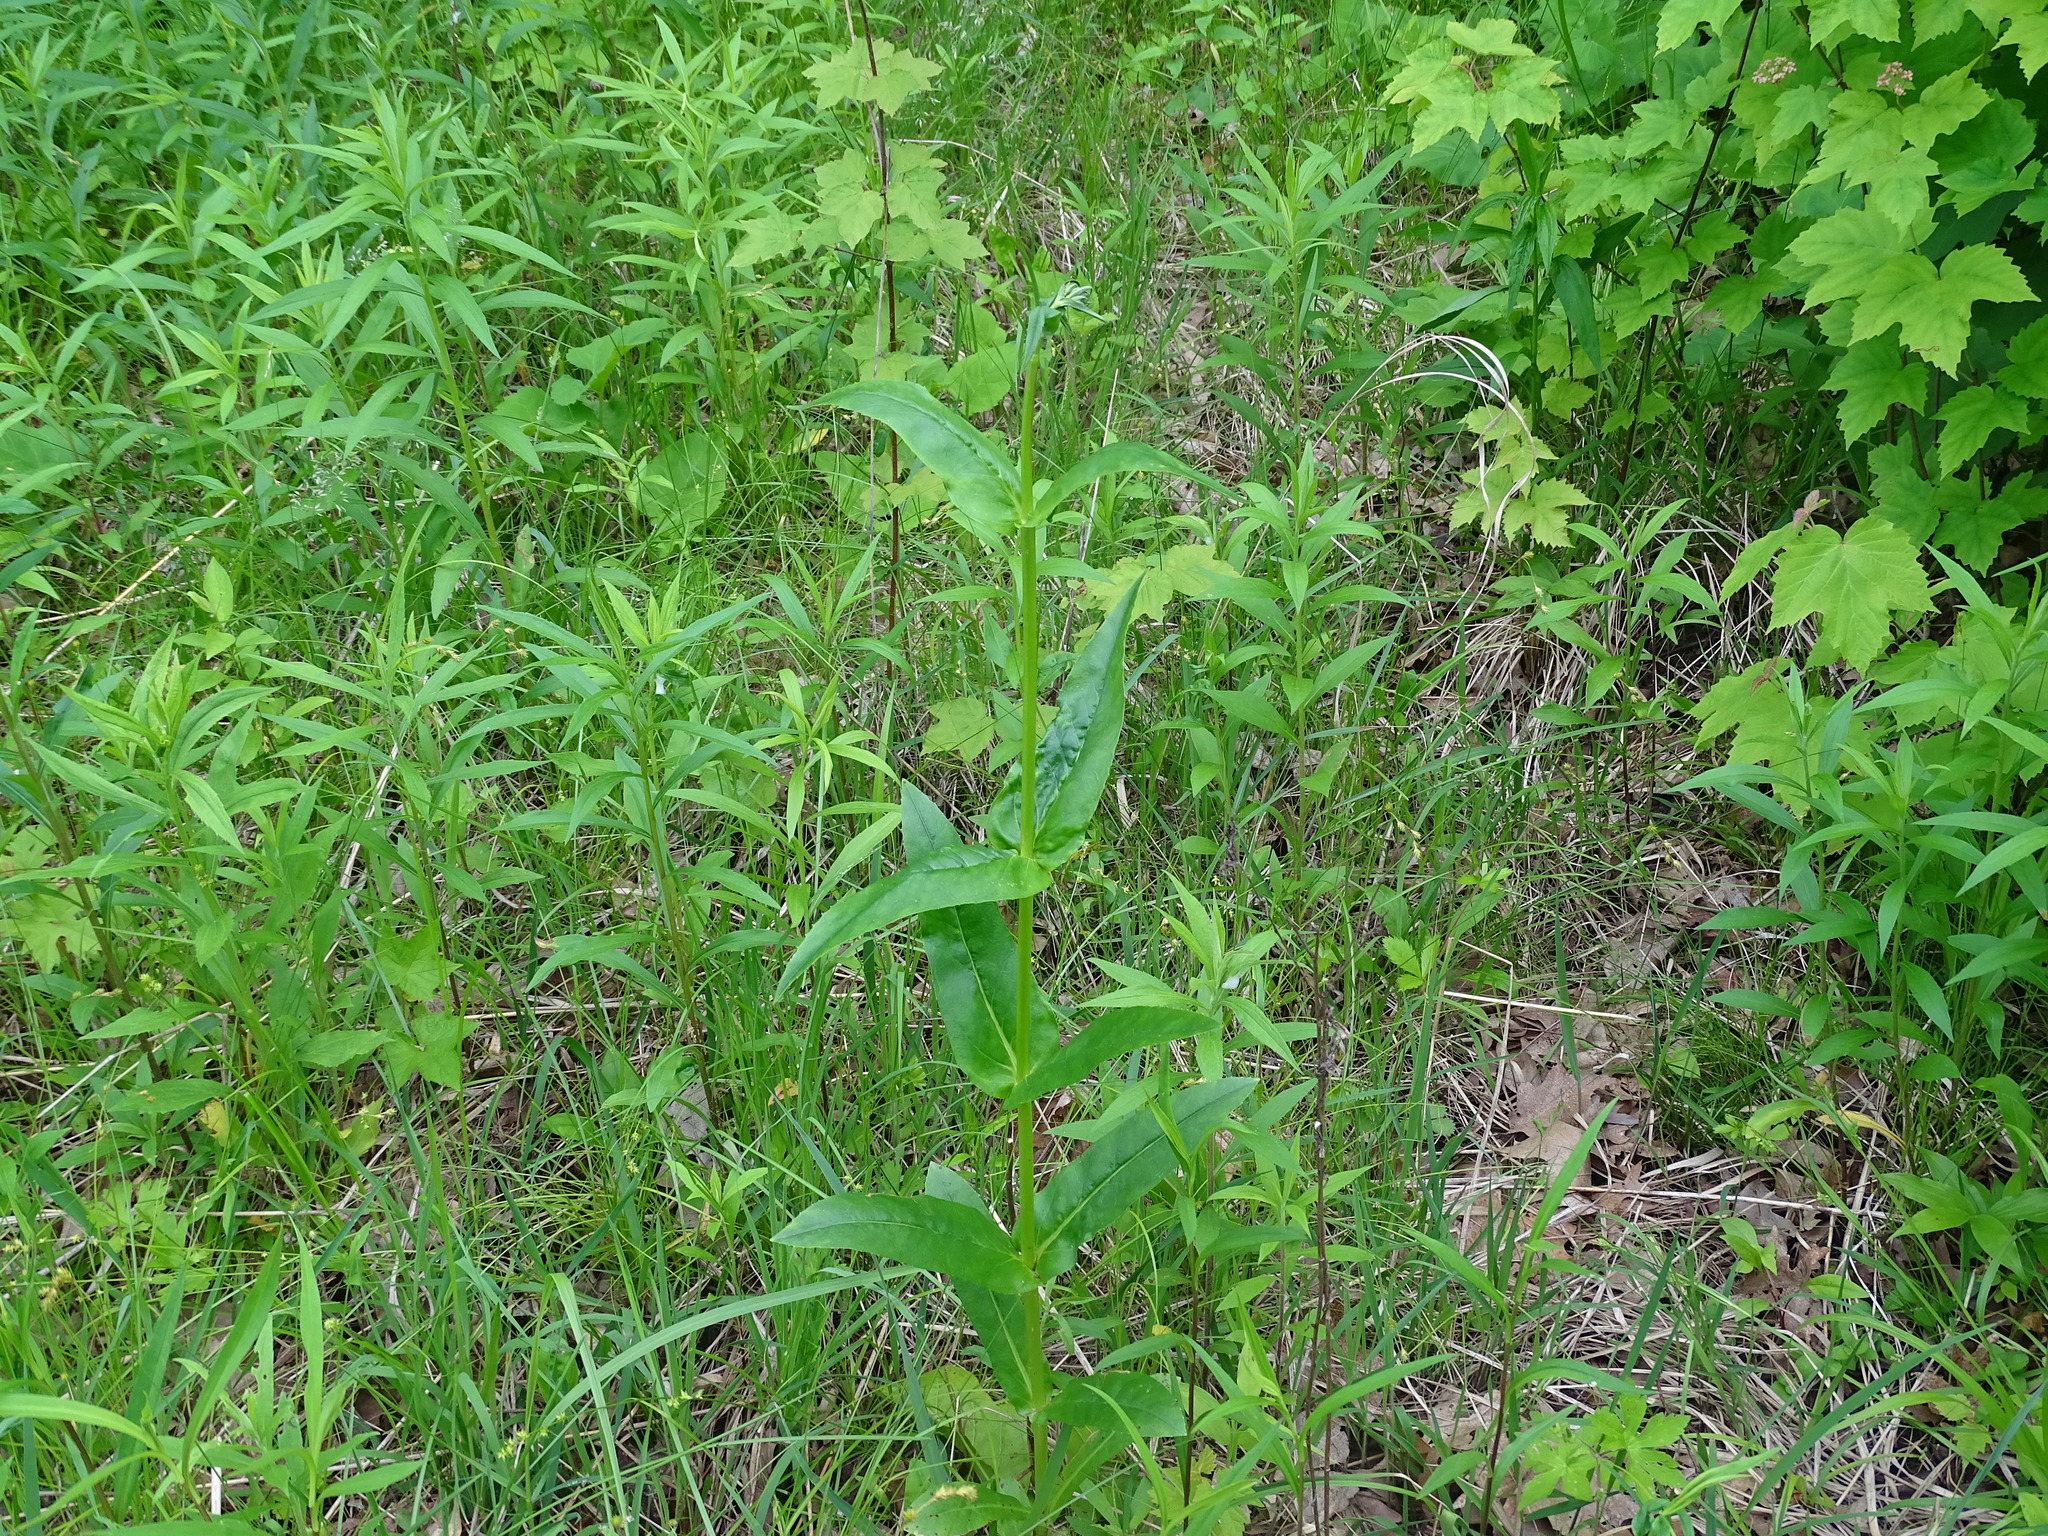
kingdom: Plantae
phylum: Tracheophyta
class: Magnoliopsida
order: Lamiales
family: Plantaginaceae
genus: Penstemon
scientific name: Penstemon digitalis
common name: Foxglove beardtongue
